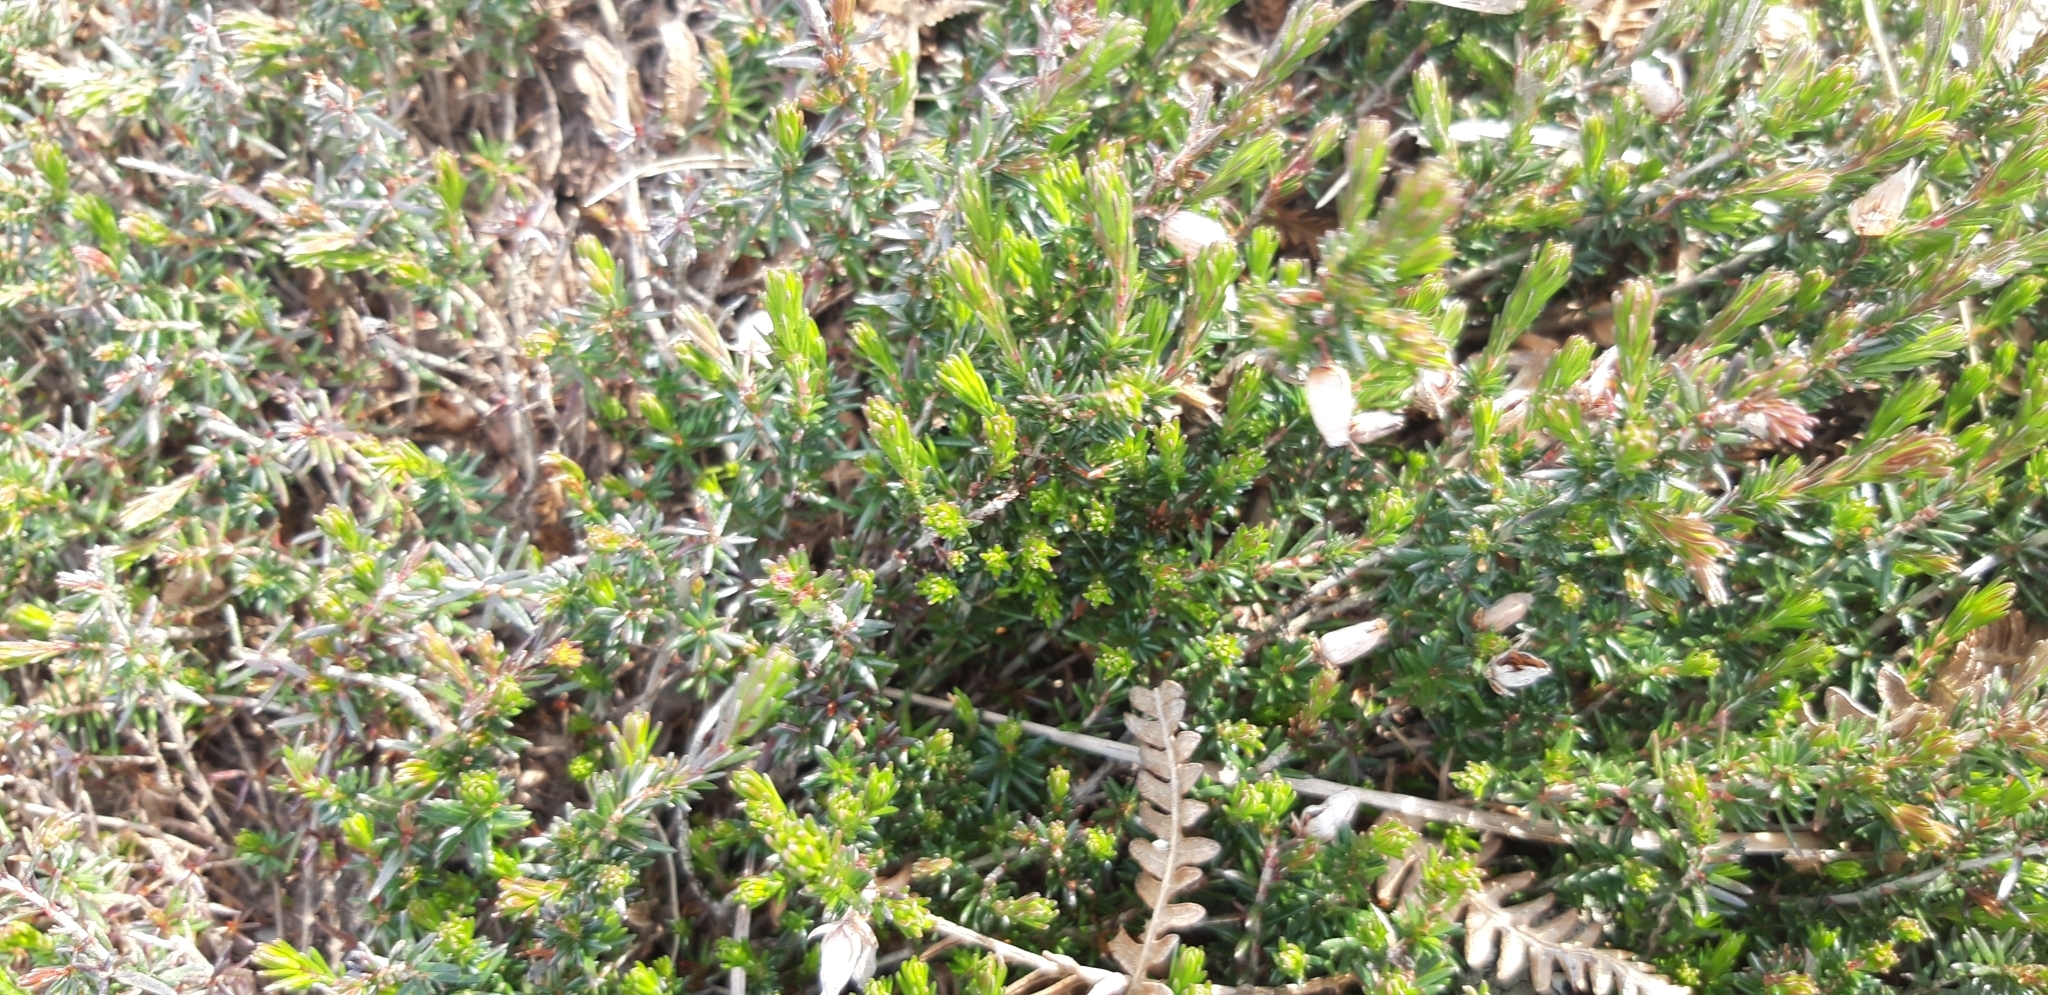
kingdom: Plantae
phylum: Tracheophyta
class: Magnoliopsida
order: Ericales
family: Ericaceae
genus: Erica
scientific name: Erica cinerea
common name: Bell heather
